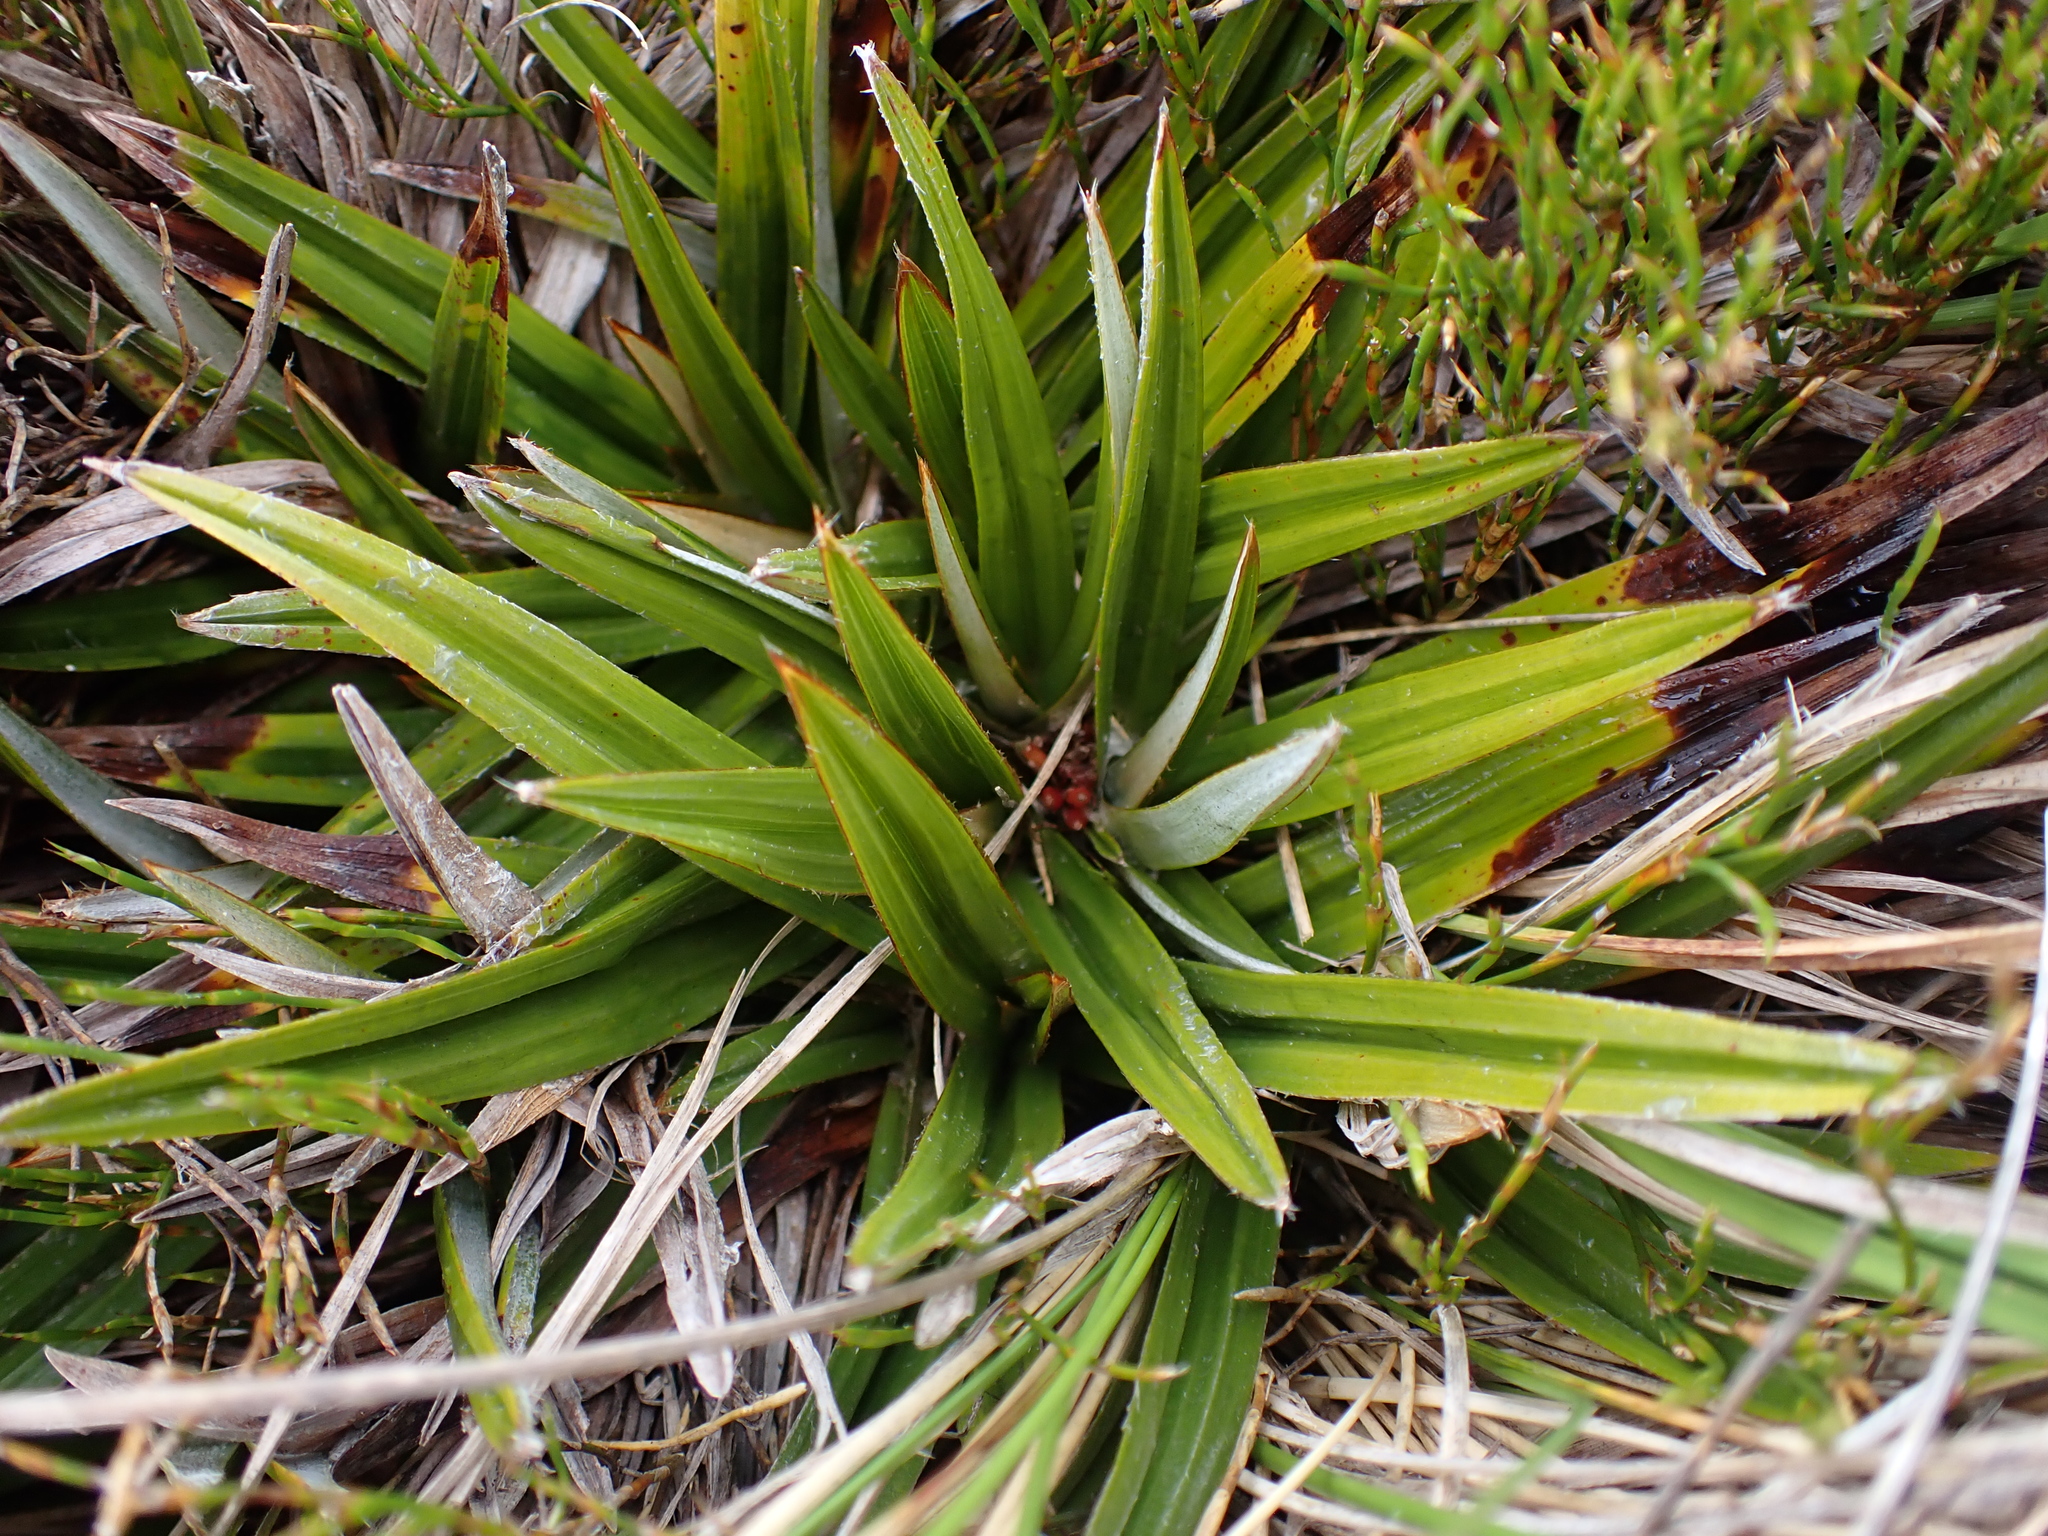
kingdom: Plantae
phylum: Tracheophyta
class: Liliopsida
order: Asparagales
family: Asteliaceae
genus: Astelia
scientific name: Astelia alpina
